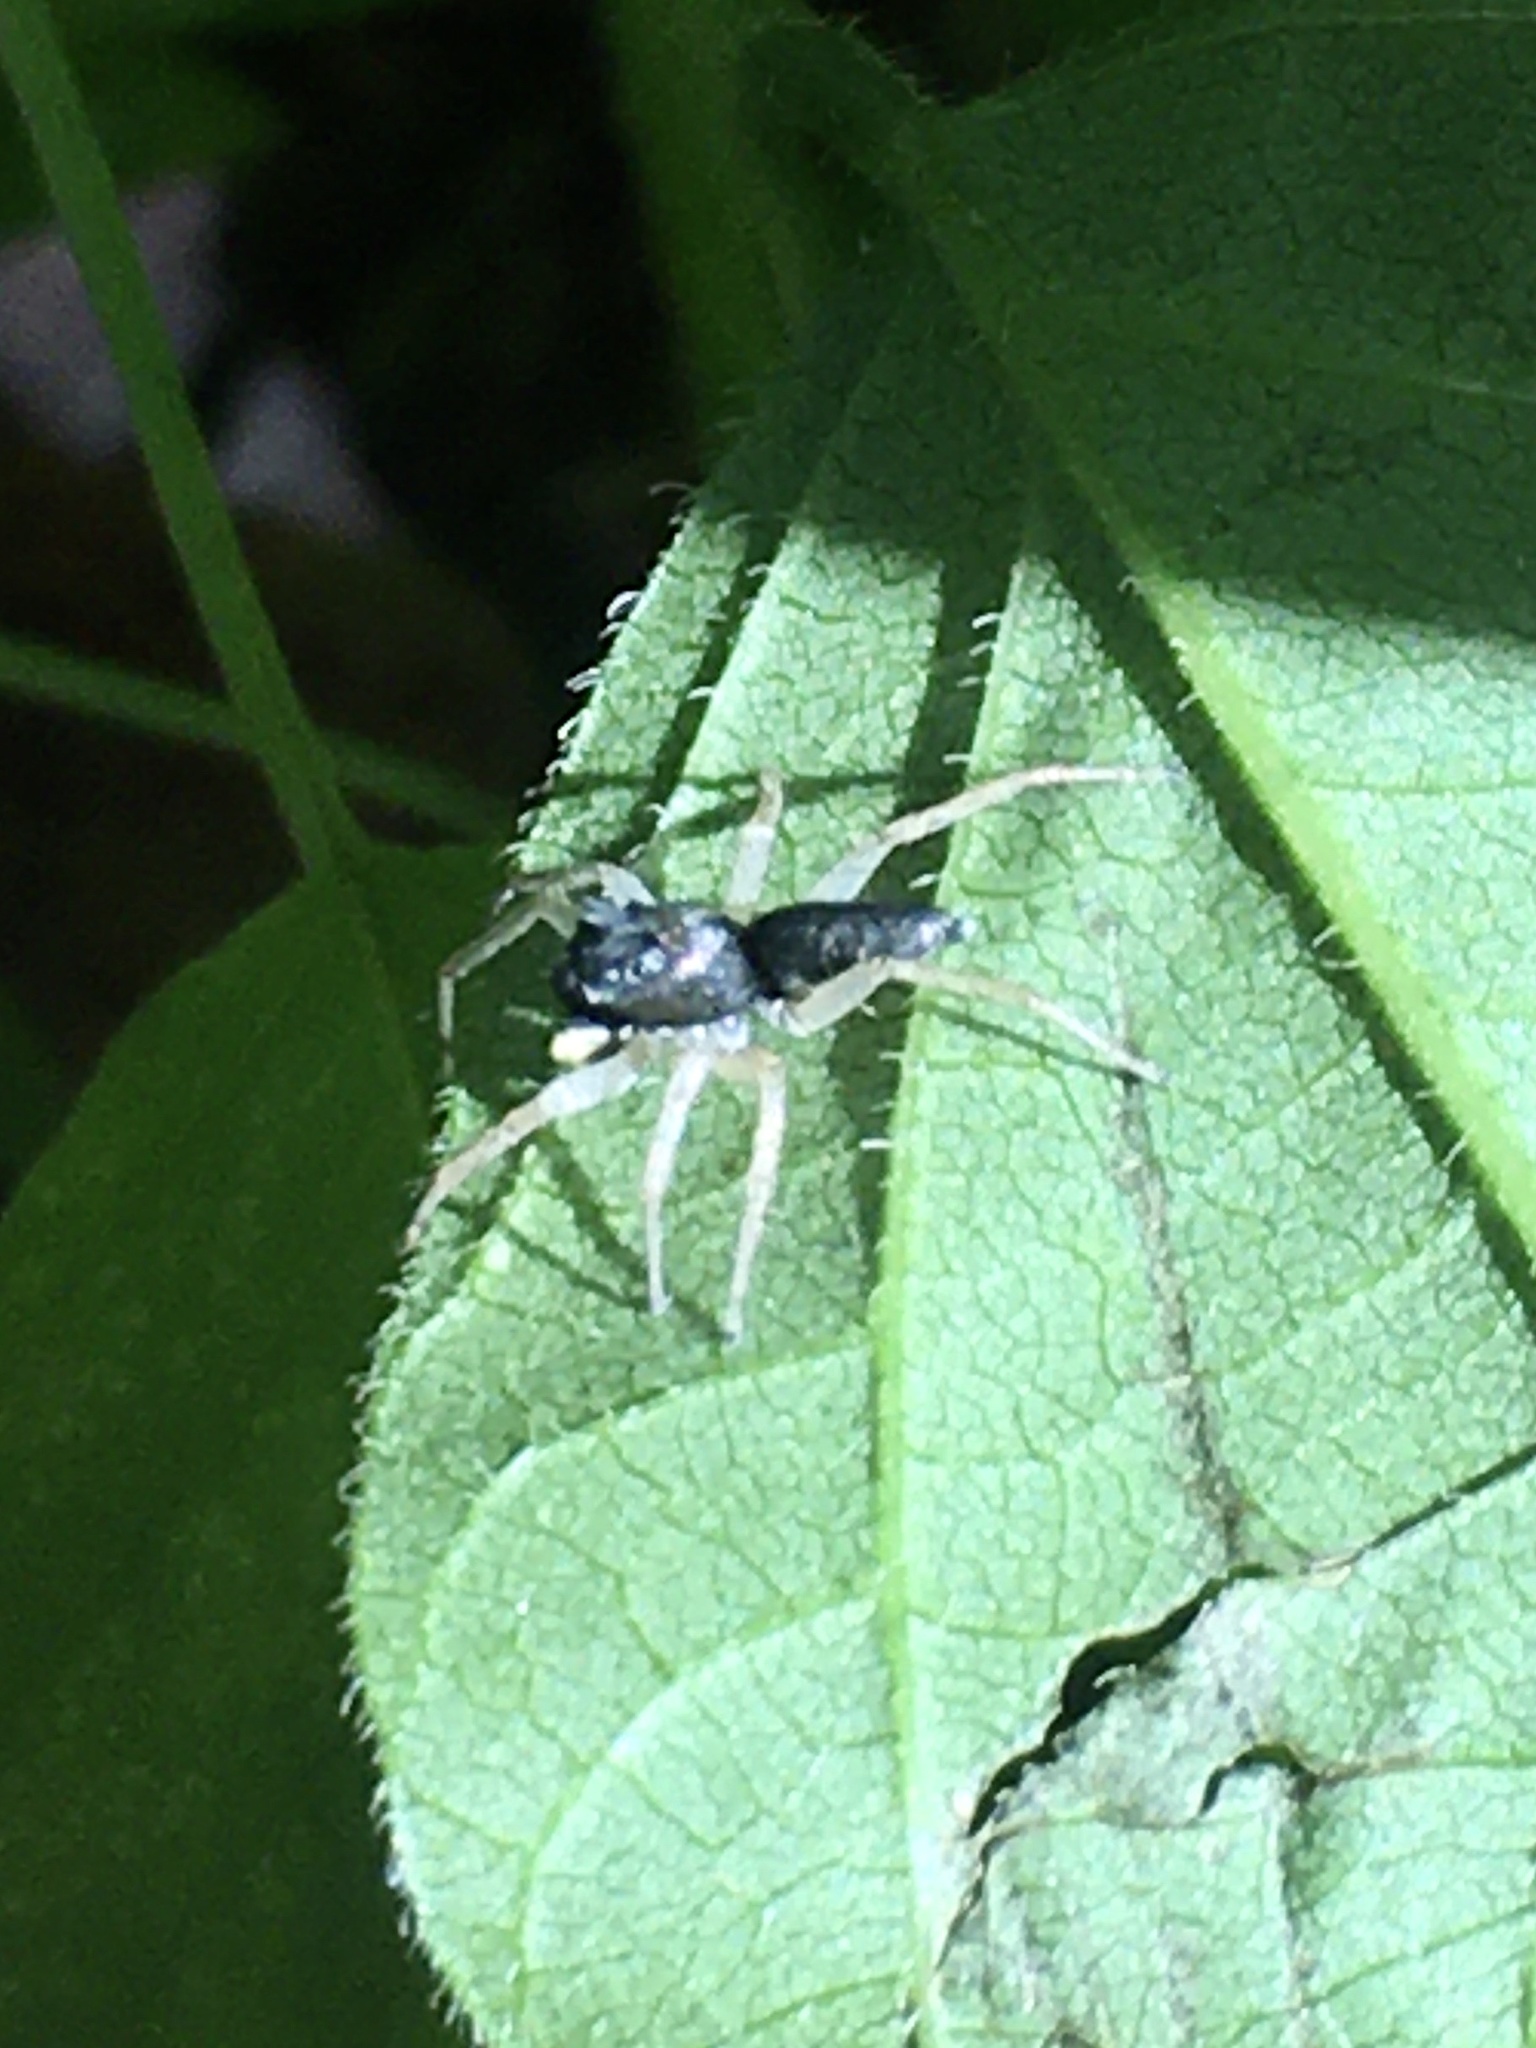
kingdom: Animalia
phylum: Arthropoda
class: Arachnida
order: Araneae
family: Salticidae
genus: Maevia
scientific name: Maevia inclemens
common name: Dimorphic jumper
